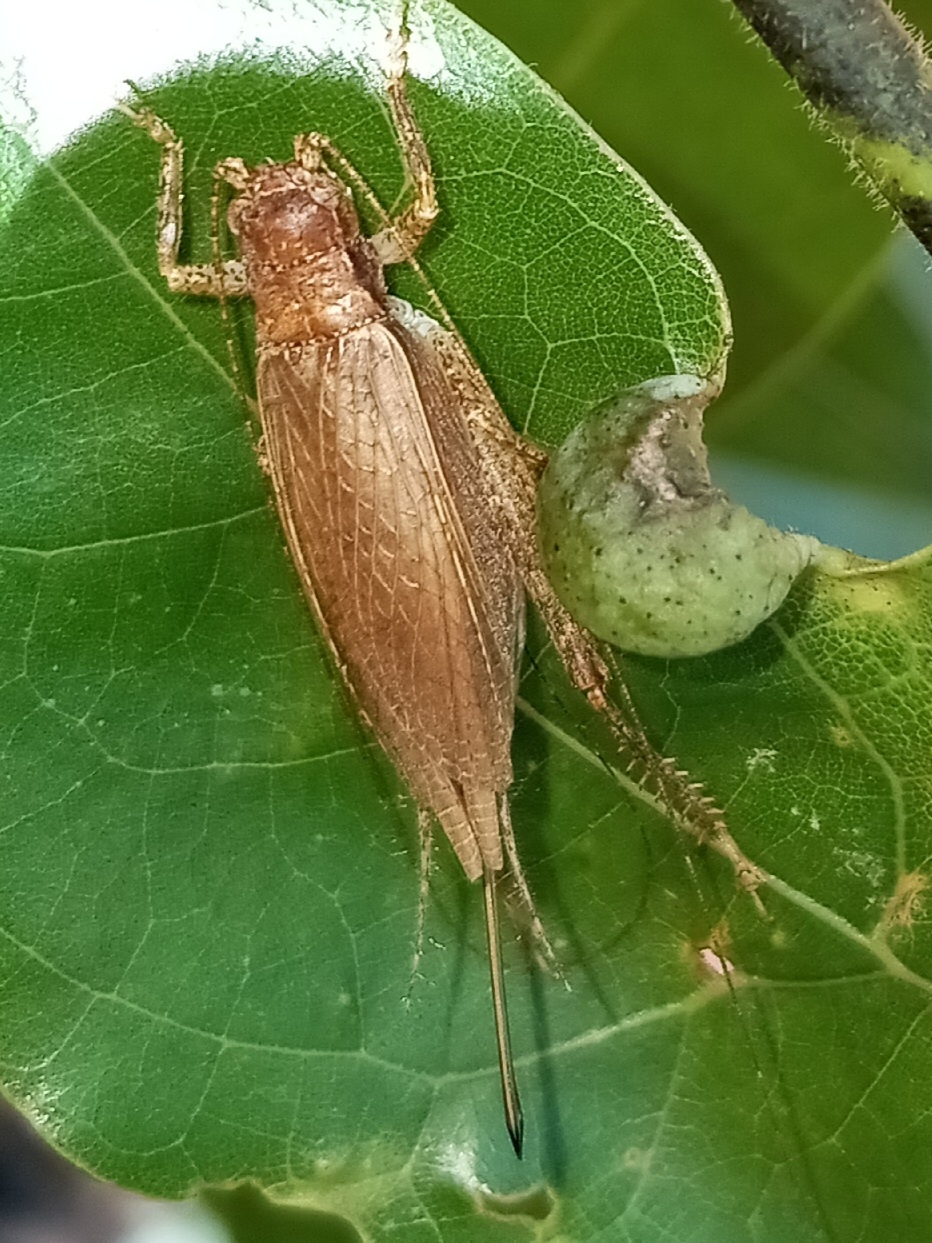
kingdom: Animalia
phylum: Arthropoda
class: Insecta
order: Orthoptera
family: Gryllidae
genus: Hapithus
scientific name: Hapithus saltator
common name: Jumping bush cricket
